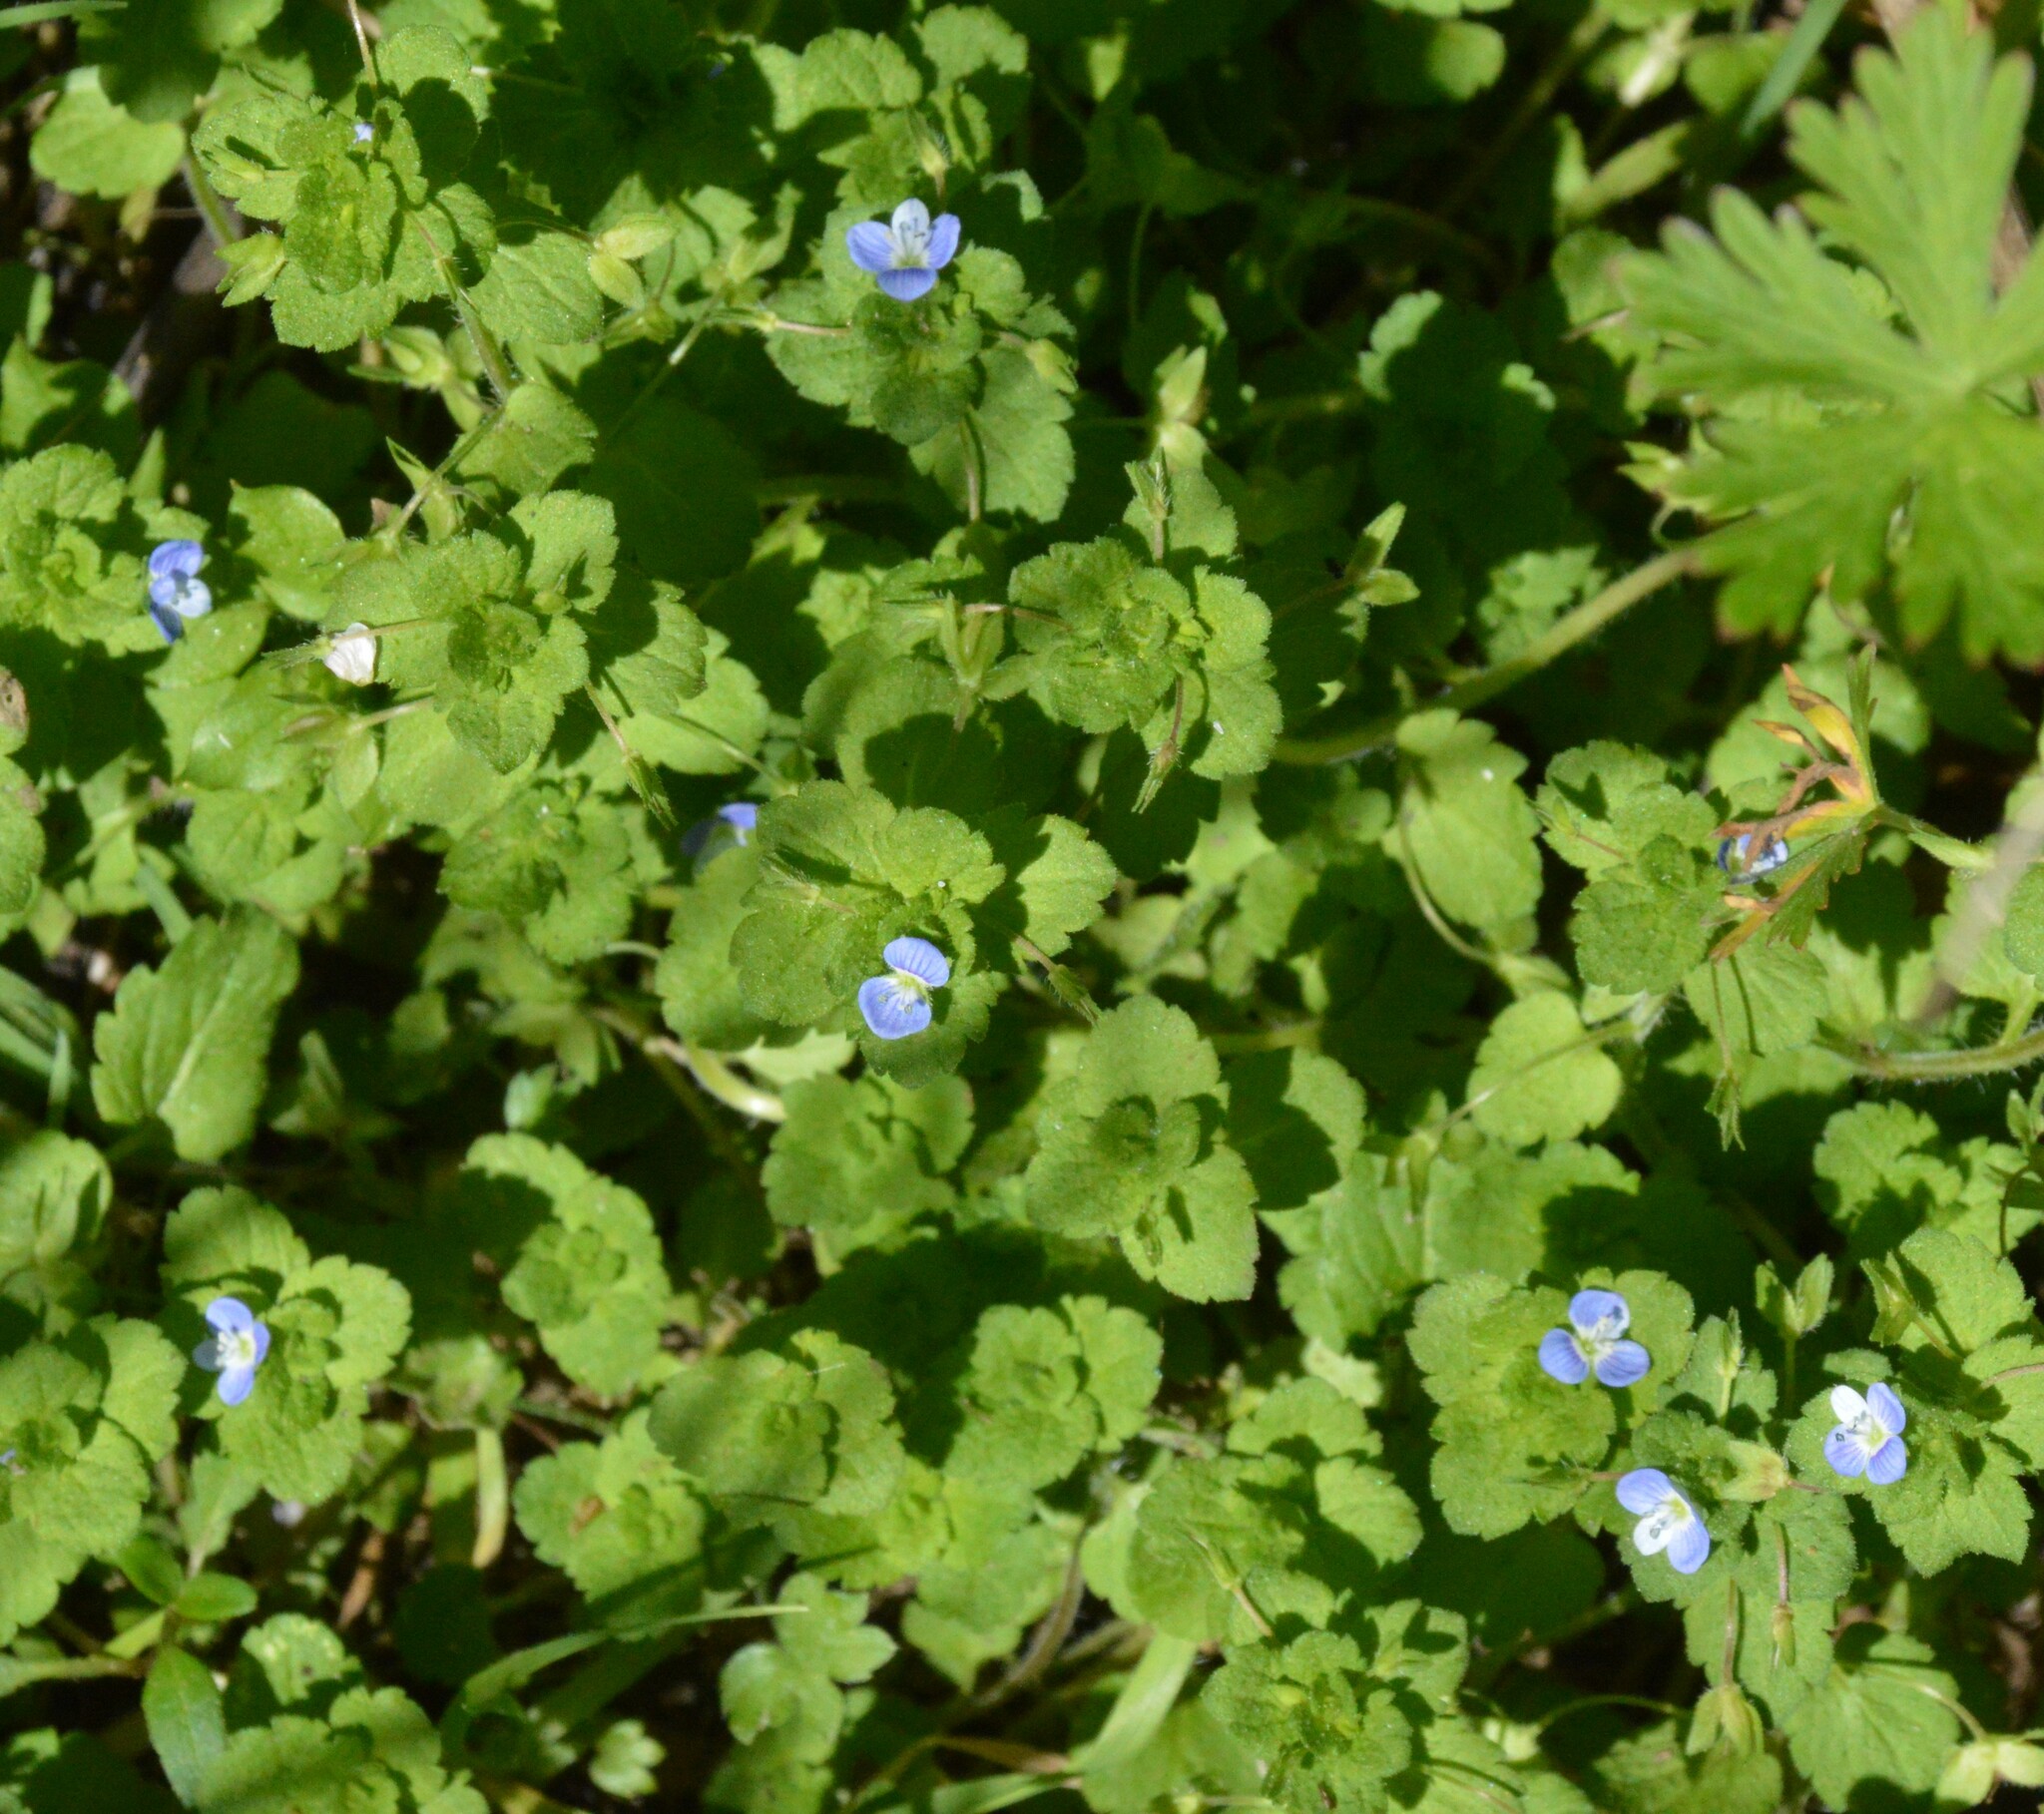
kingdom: Plantae
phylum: Tracheophyta
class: Magnoliopsida
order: Lamiales
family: Plantaginaceae
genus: Veronica
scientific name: Veronica persica
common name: Common field-speedwell
